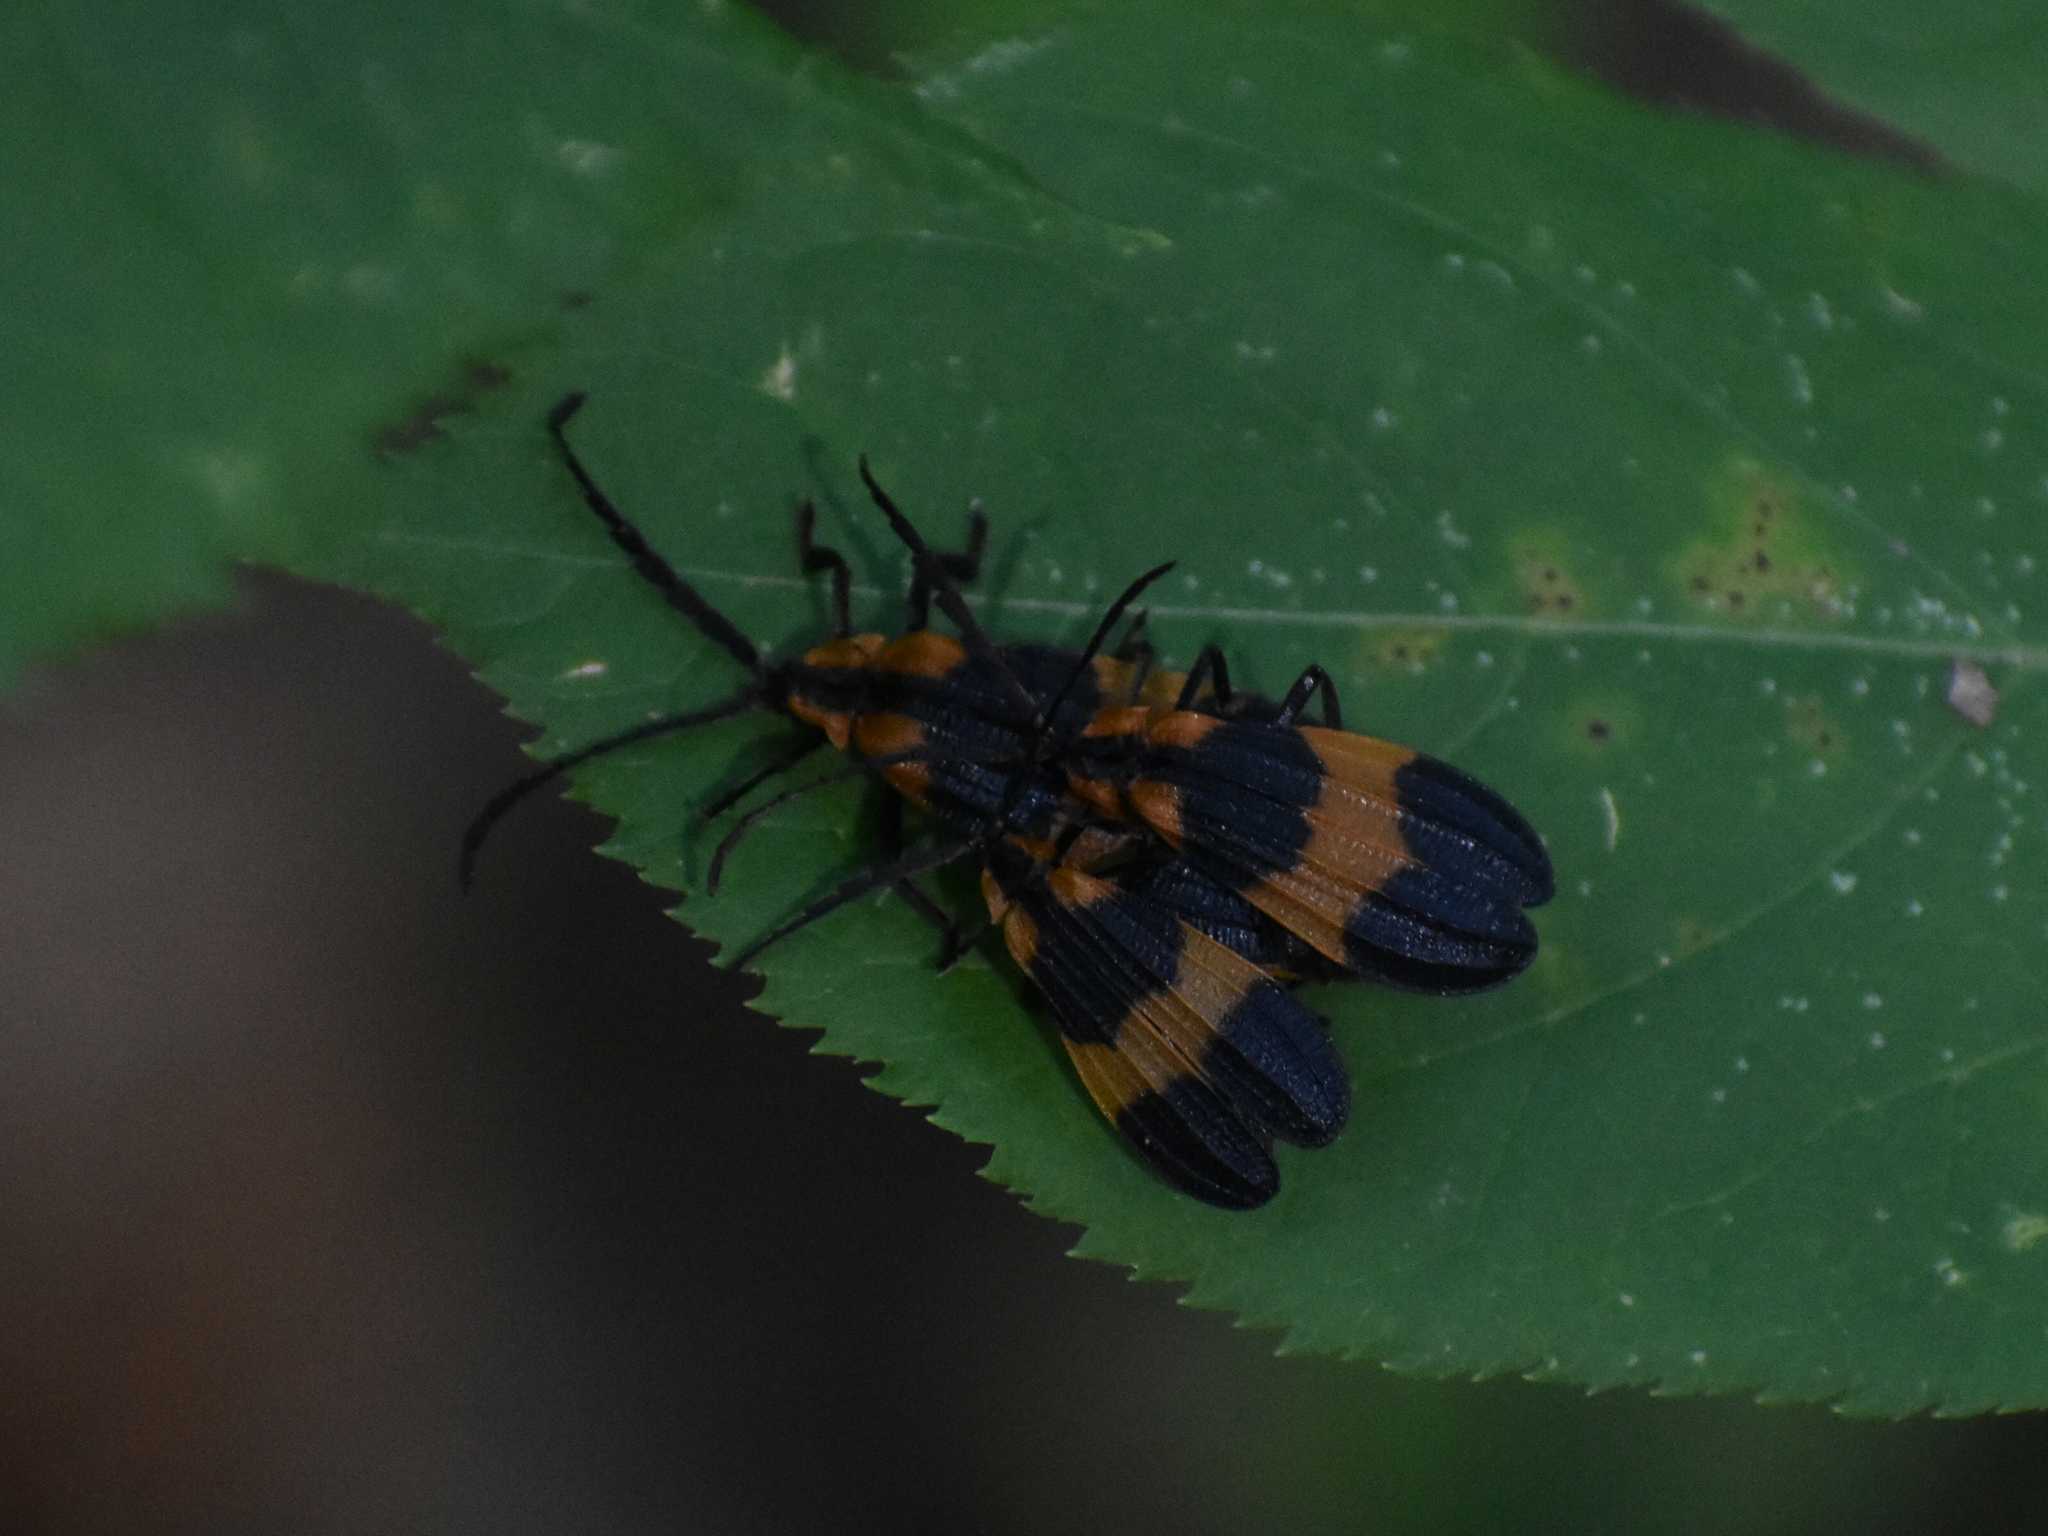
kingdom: Animalia
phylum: Arthropoda
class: Insecta
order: Coleoptera
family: Lycidae
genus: Calopteron
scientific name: Calopteron reticulatum
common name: Banded net-winged beetle
